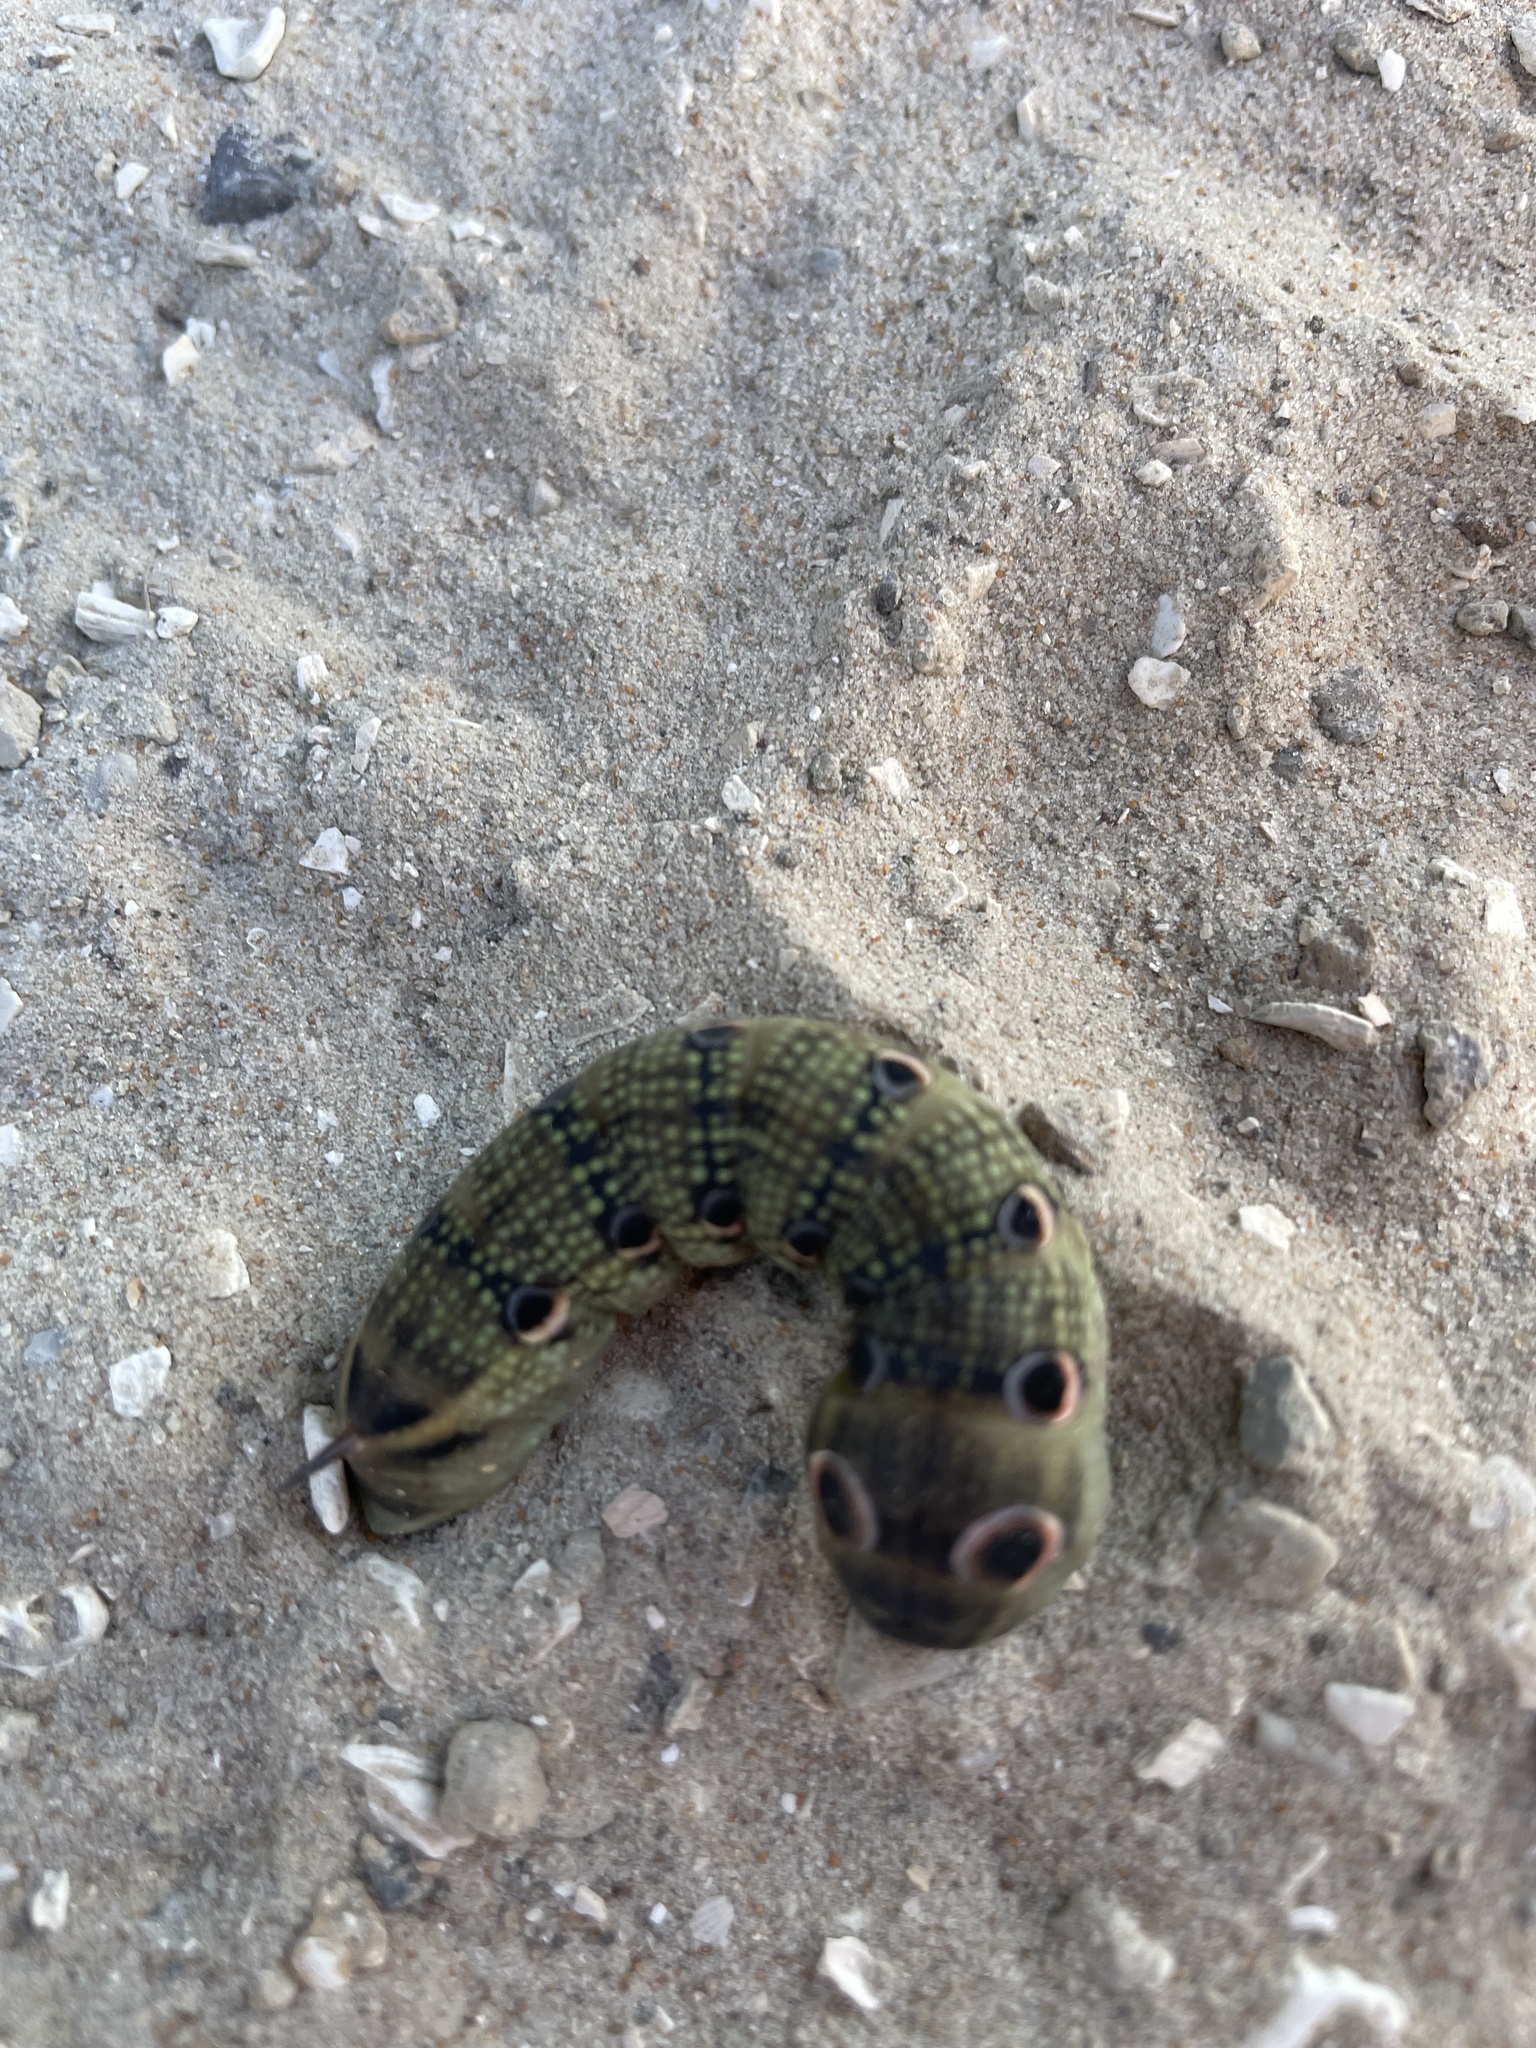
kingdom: Animalia
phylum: Arthropoda
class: Insecta
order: Lepidoptera
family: Sphingidae
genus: Xylophanes
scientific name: Xylophanes tersa
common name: Tersa sphinx
